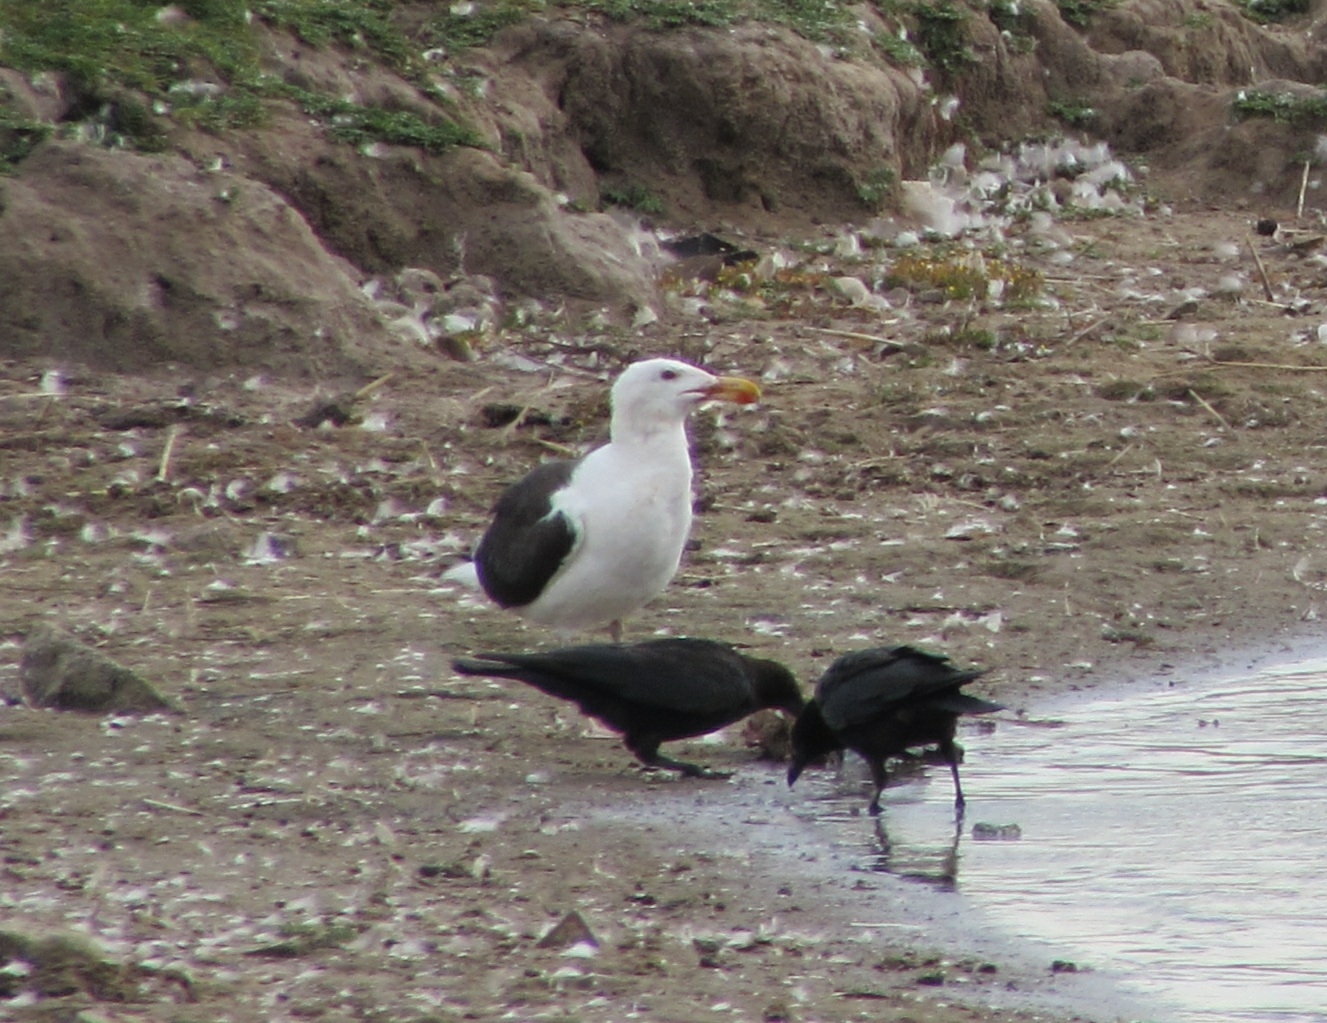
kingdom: Animalia
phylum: Chordata
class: Aves
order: Charadriiformes
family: Laridae
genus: Larus
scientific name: Larus marinus
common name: Great black-backed gull
